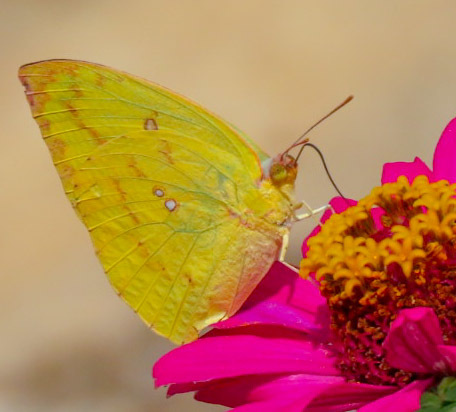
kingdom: Animalia
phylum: Arthropoda
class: Insecta
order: Lepidoptera
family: Pieridae
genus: Catopsilia
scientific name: Catopsilia scylla
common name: Orange emigrant
